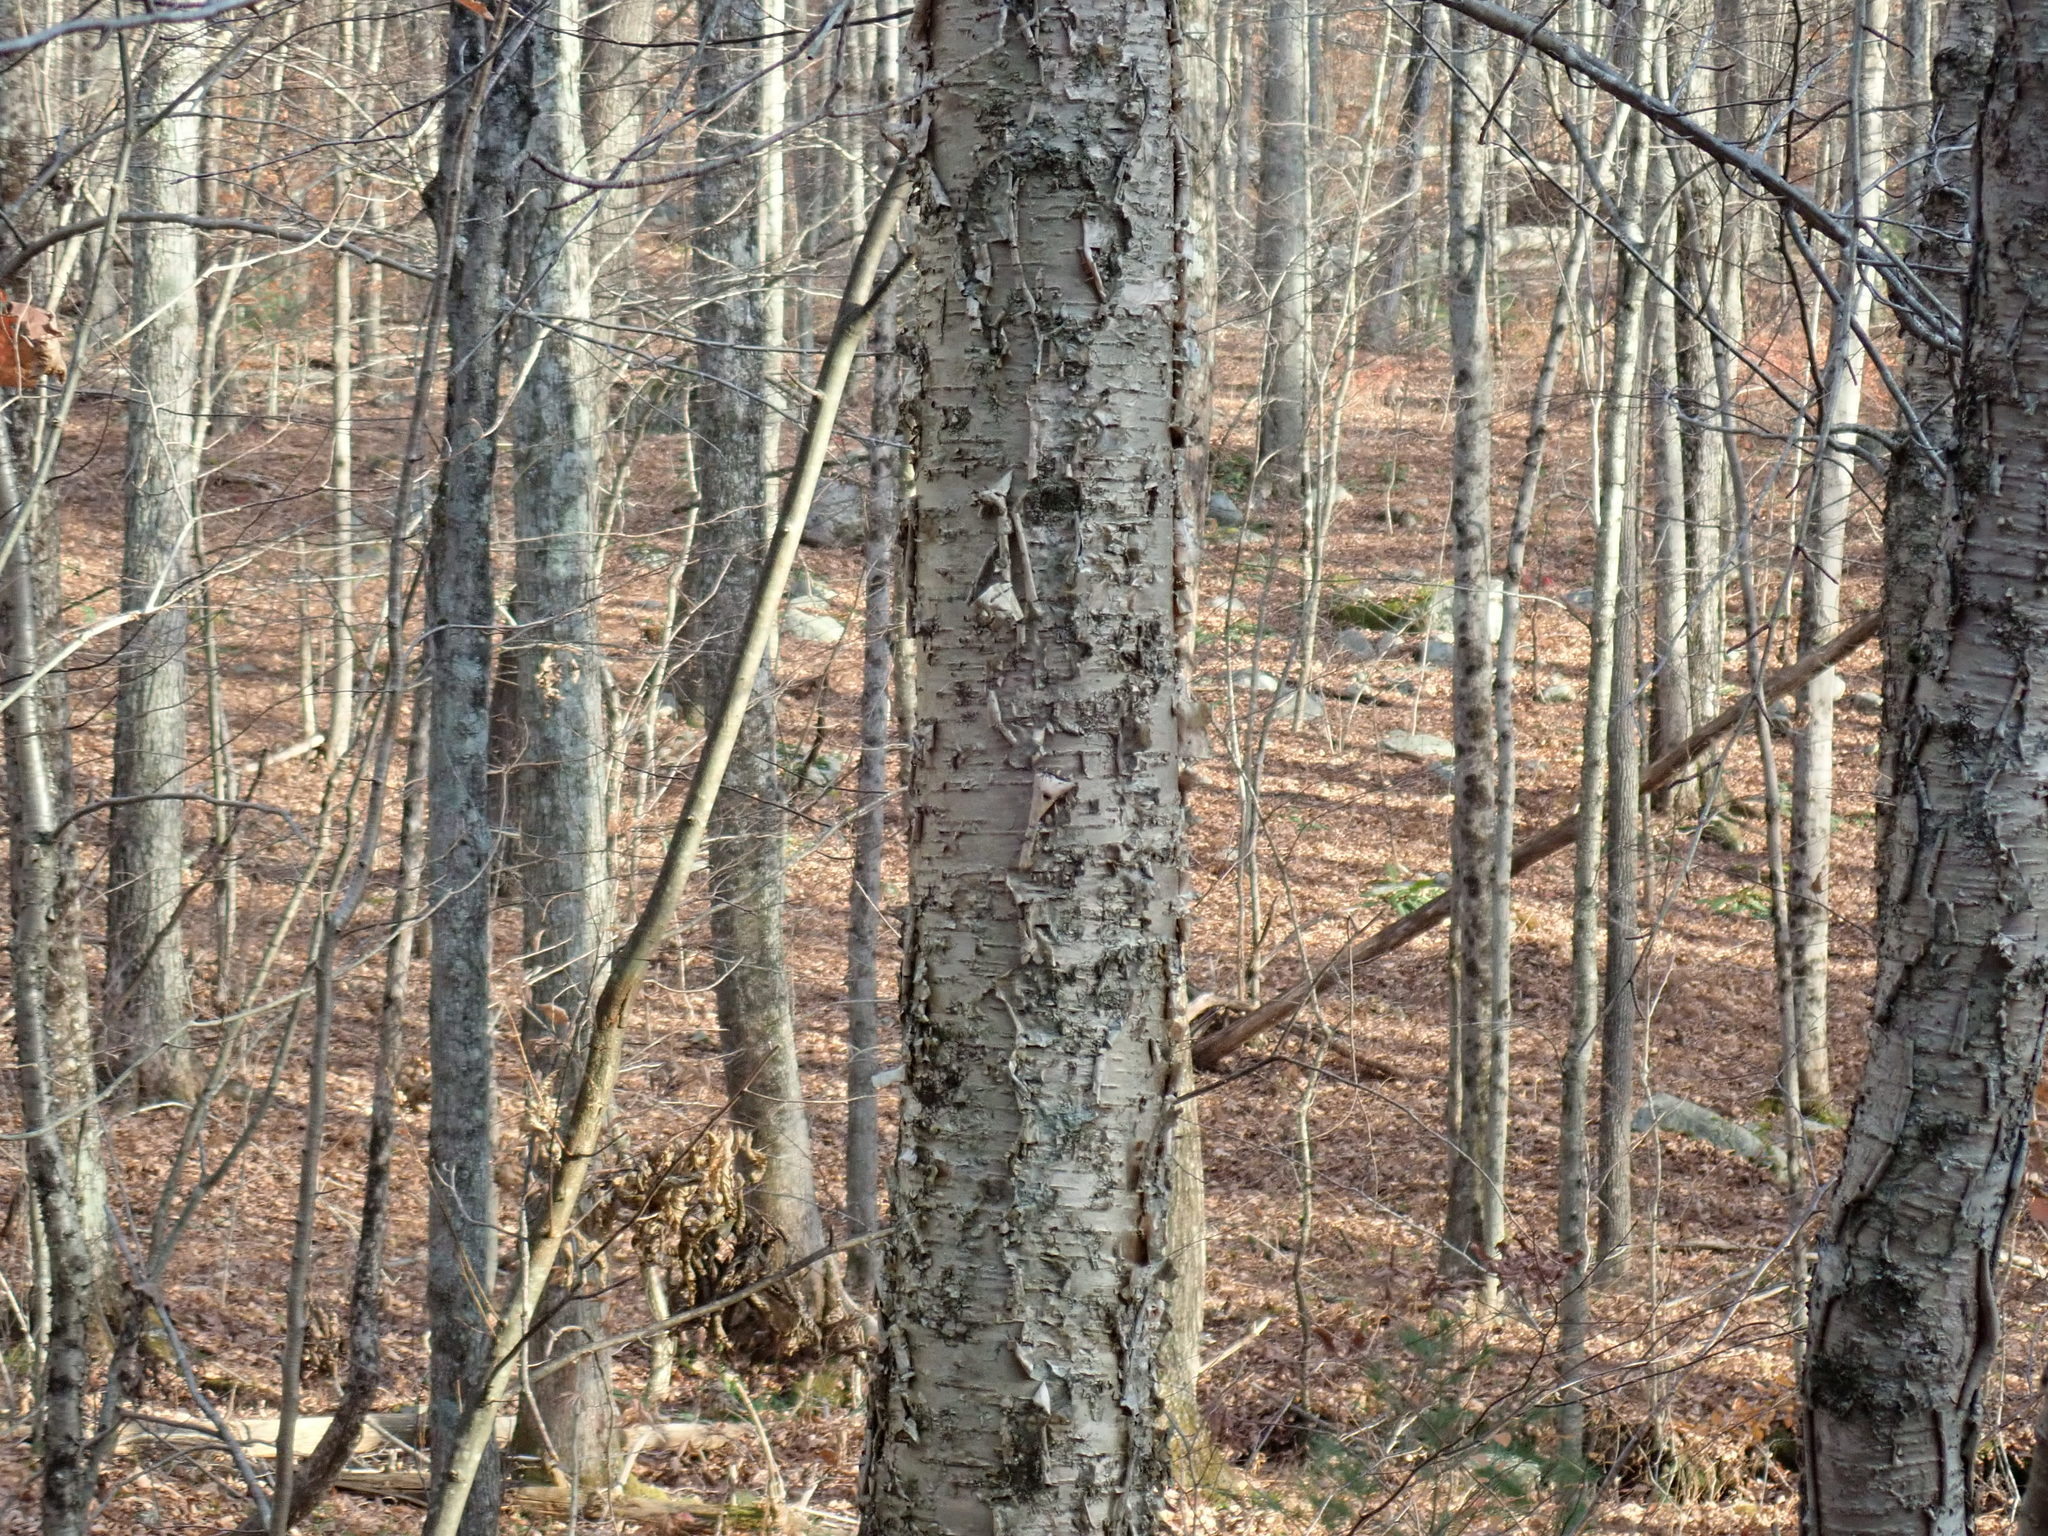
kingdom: Plantae
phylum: Tracheophyta
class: Magnoliopsida
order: Fagales
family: Betulaceae
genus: Betula
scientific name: Betula alleghaniensis
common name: Yellow birch
